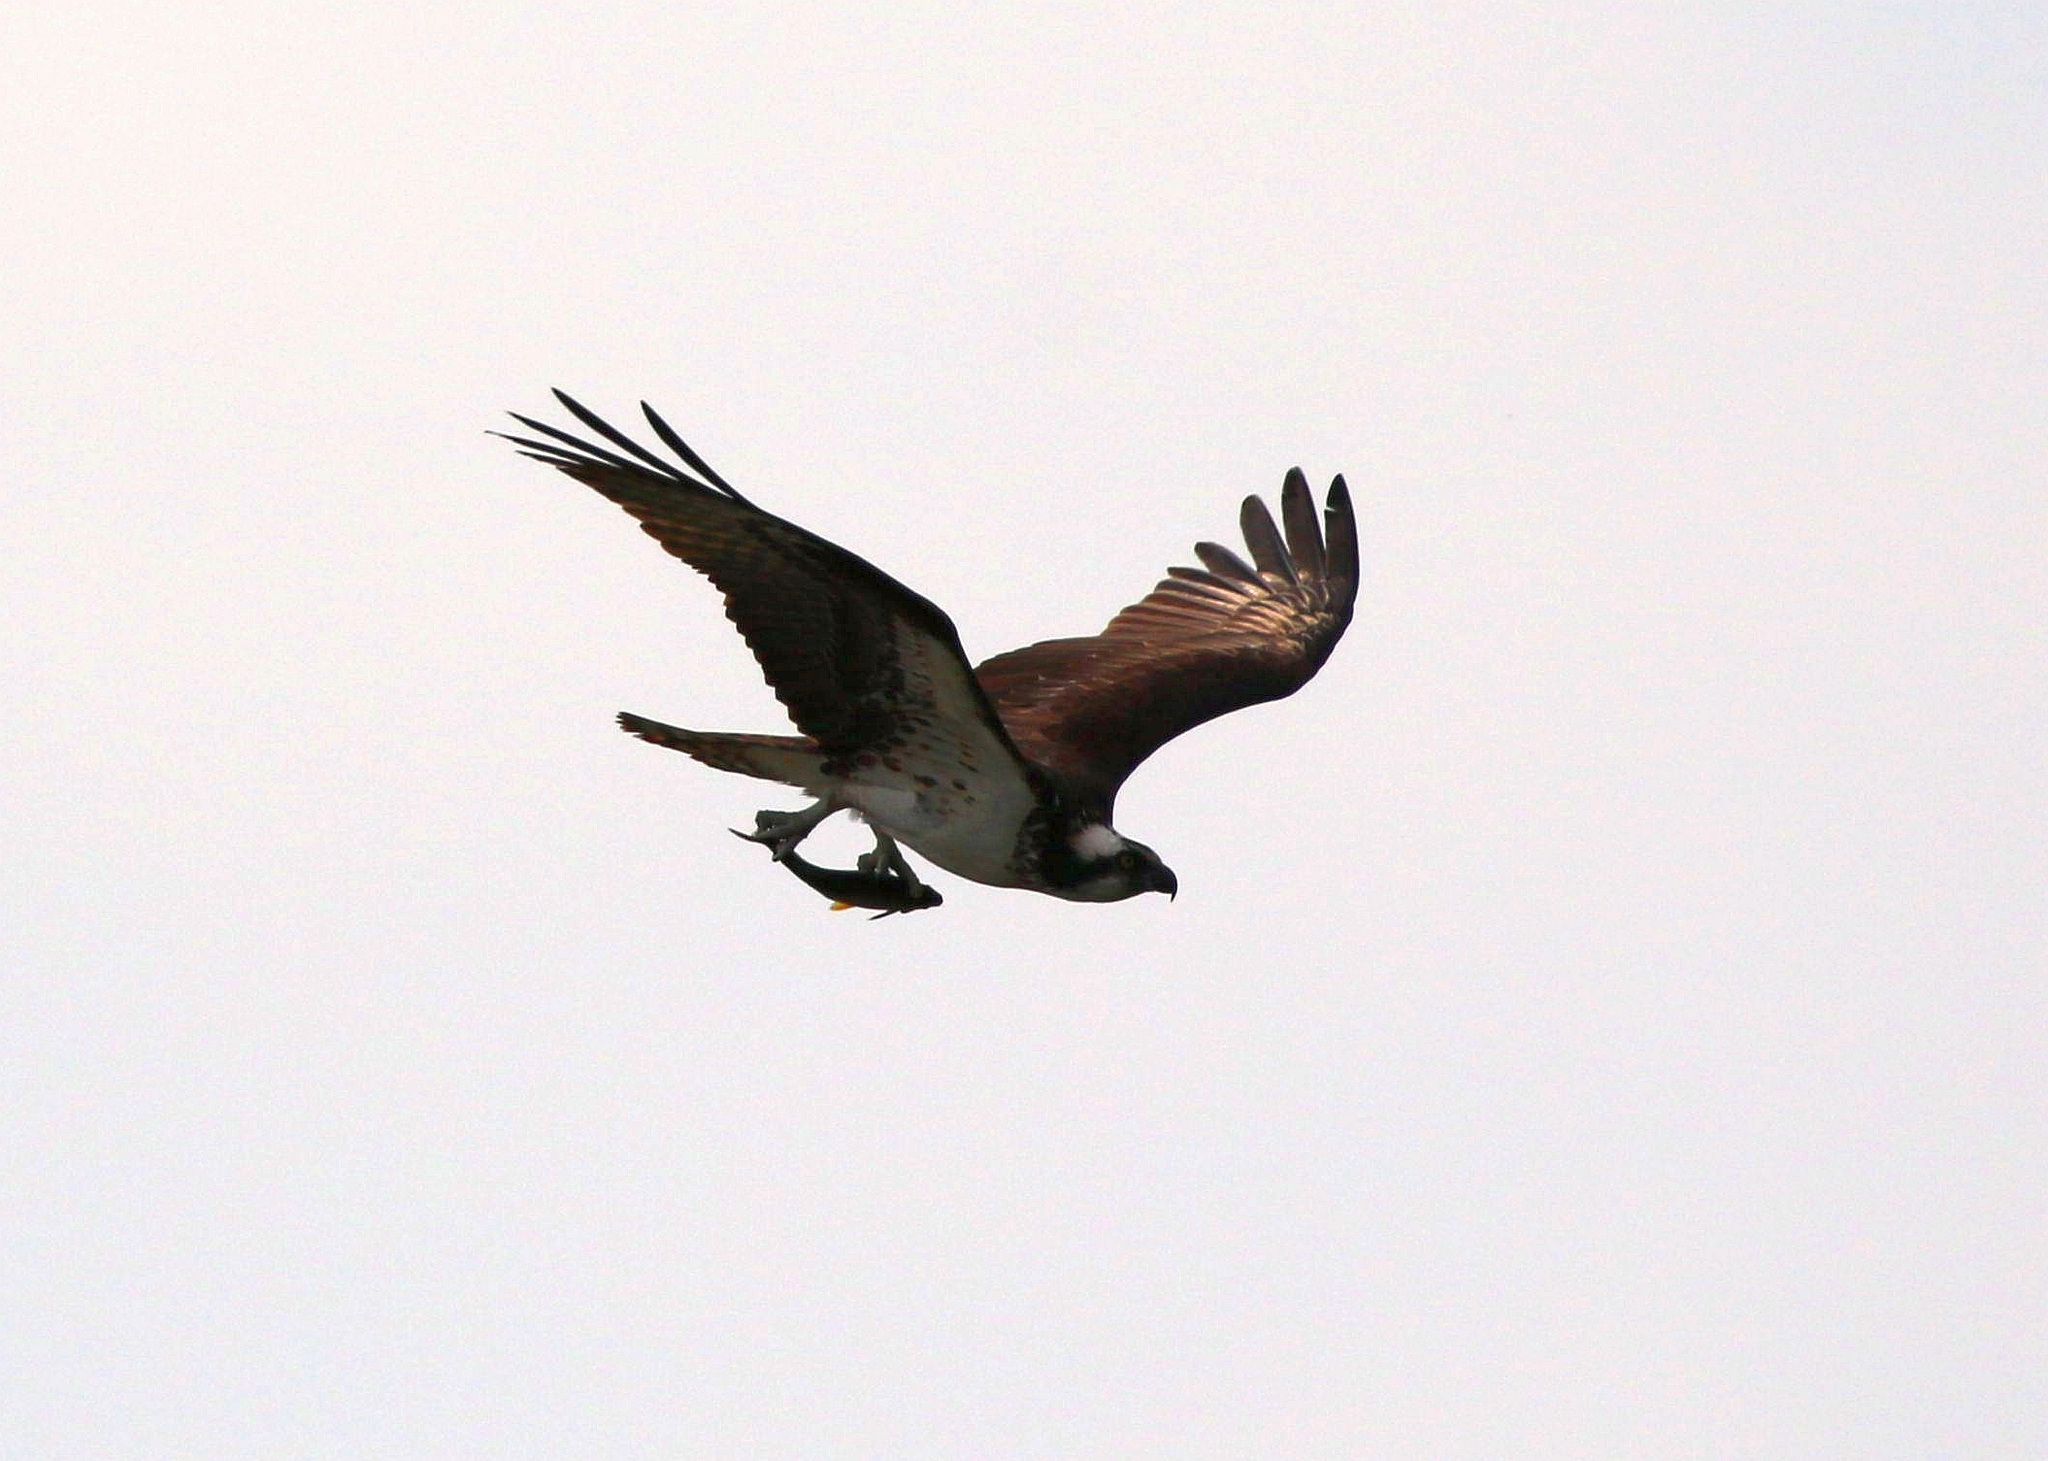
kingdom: Animalia
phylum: Chordata
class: Aves
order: Accipitriformes
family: Pandionidae
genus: Pandion
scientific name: Pandion haliaetus
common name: Osprey
